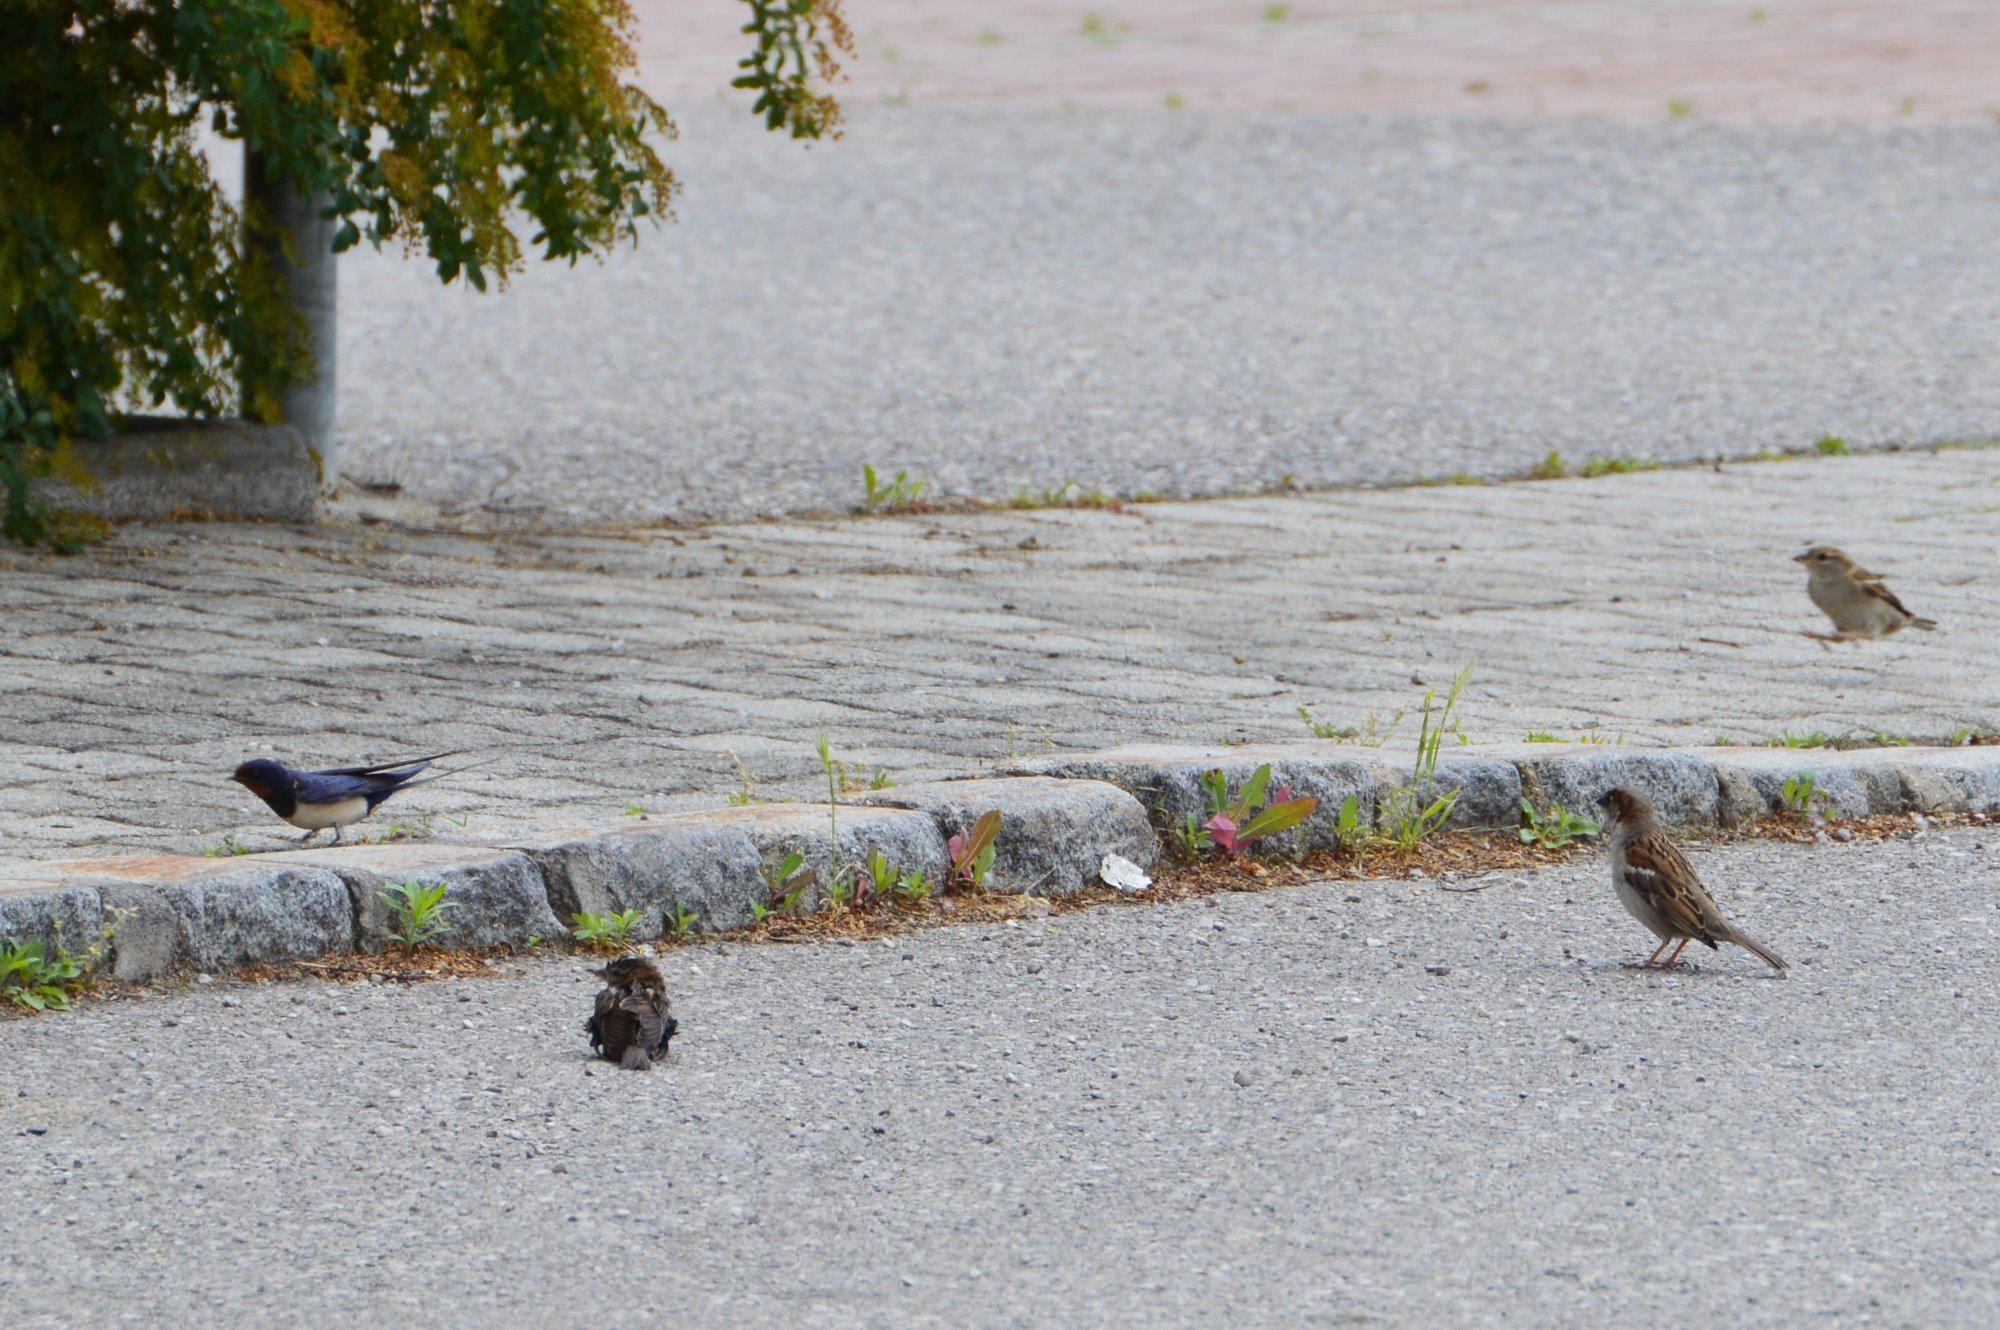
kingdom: Animalia
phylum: Chordata
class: Aves
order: Passeriformes
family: Passeridae
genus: Passer
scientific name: Passer domesticus
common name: House sparrow
